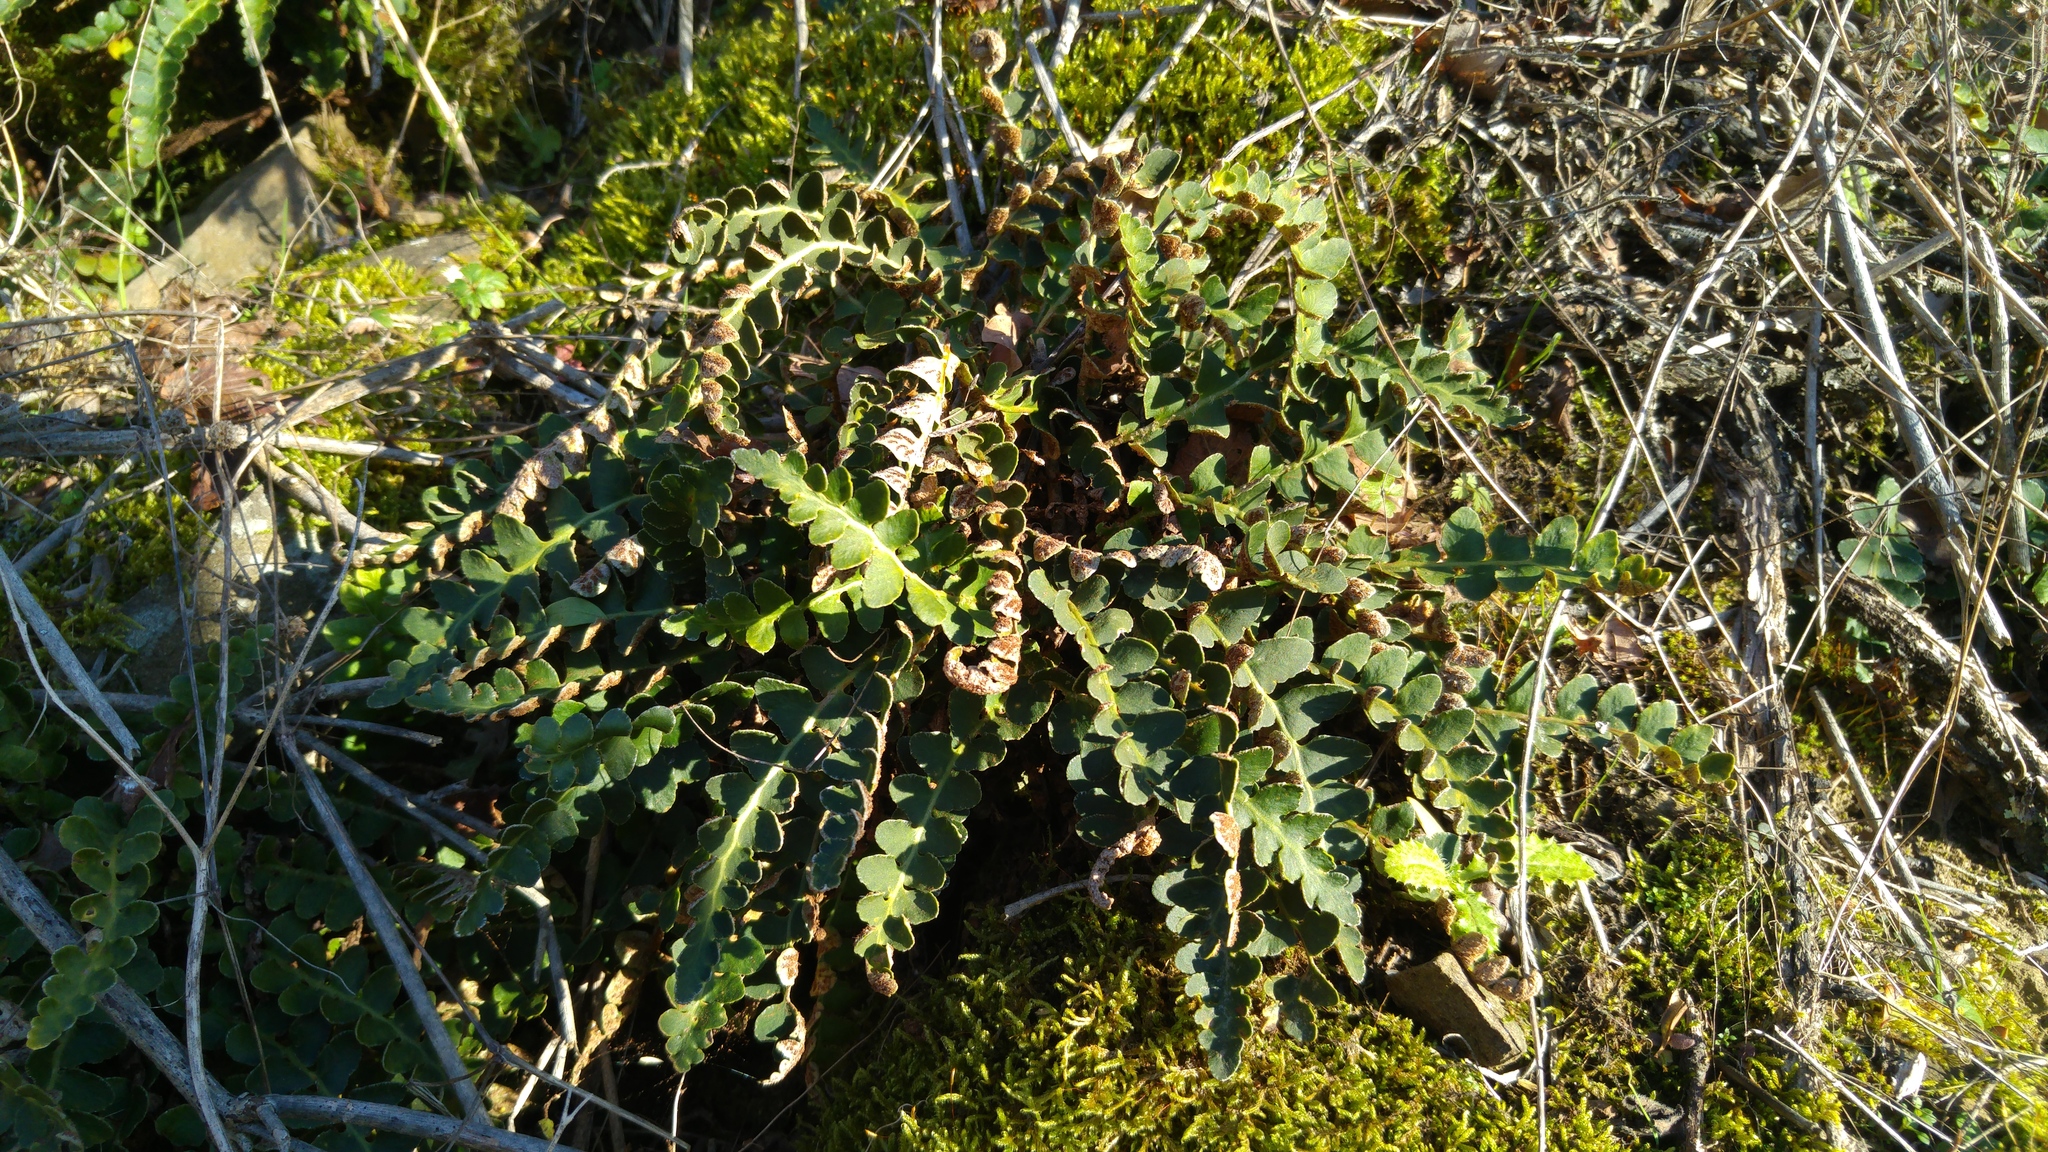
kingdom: Plantae
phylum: Tracheophyta
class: Polypodiopsida
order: Polypodiales
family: Aspleniaceae
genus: Asplenium
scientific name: Asplenium ceterach
